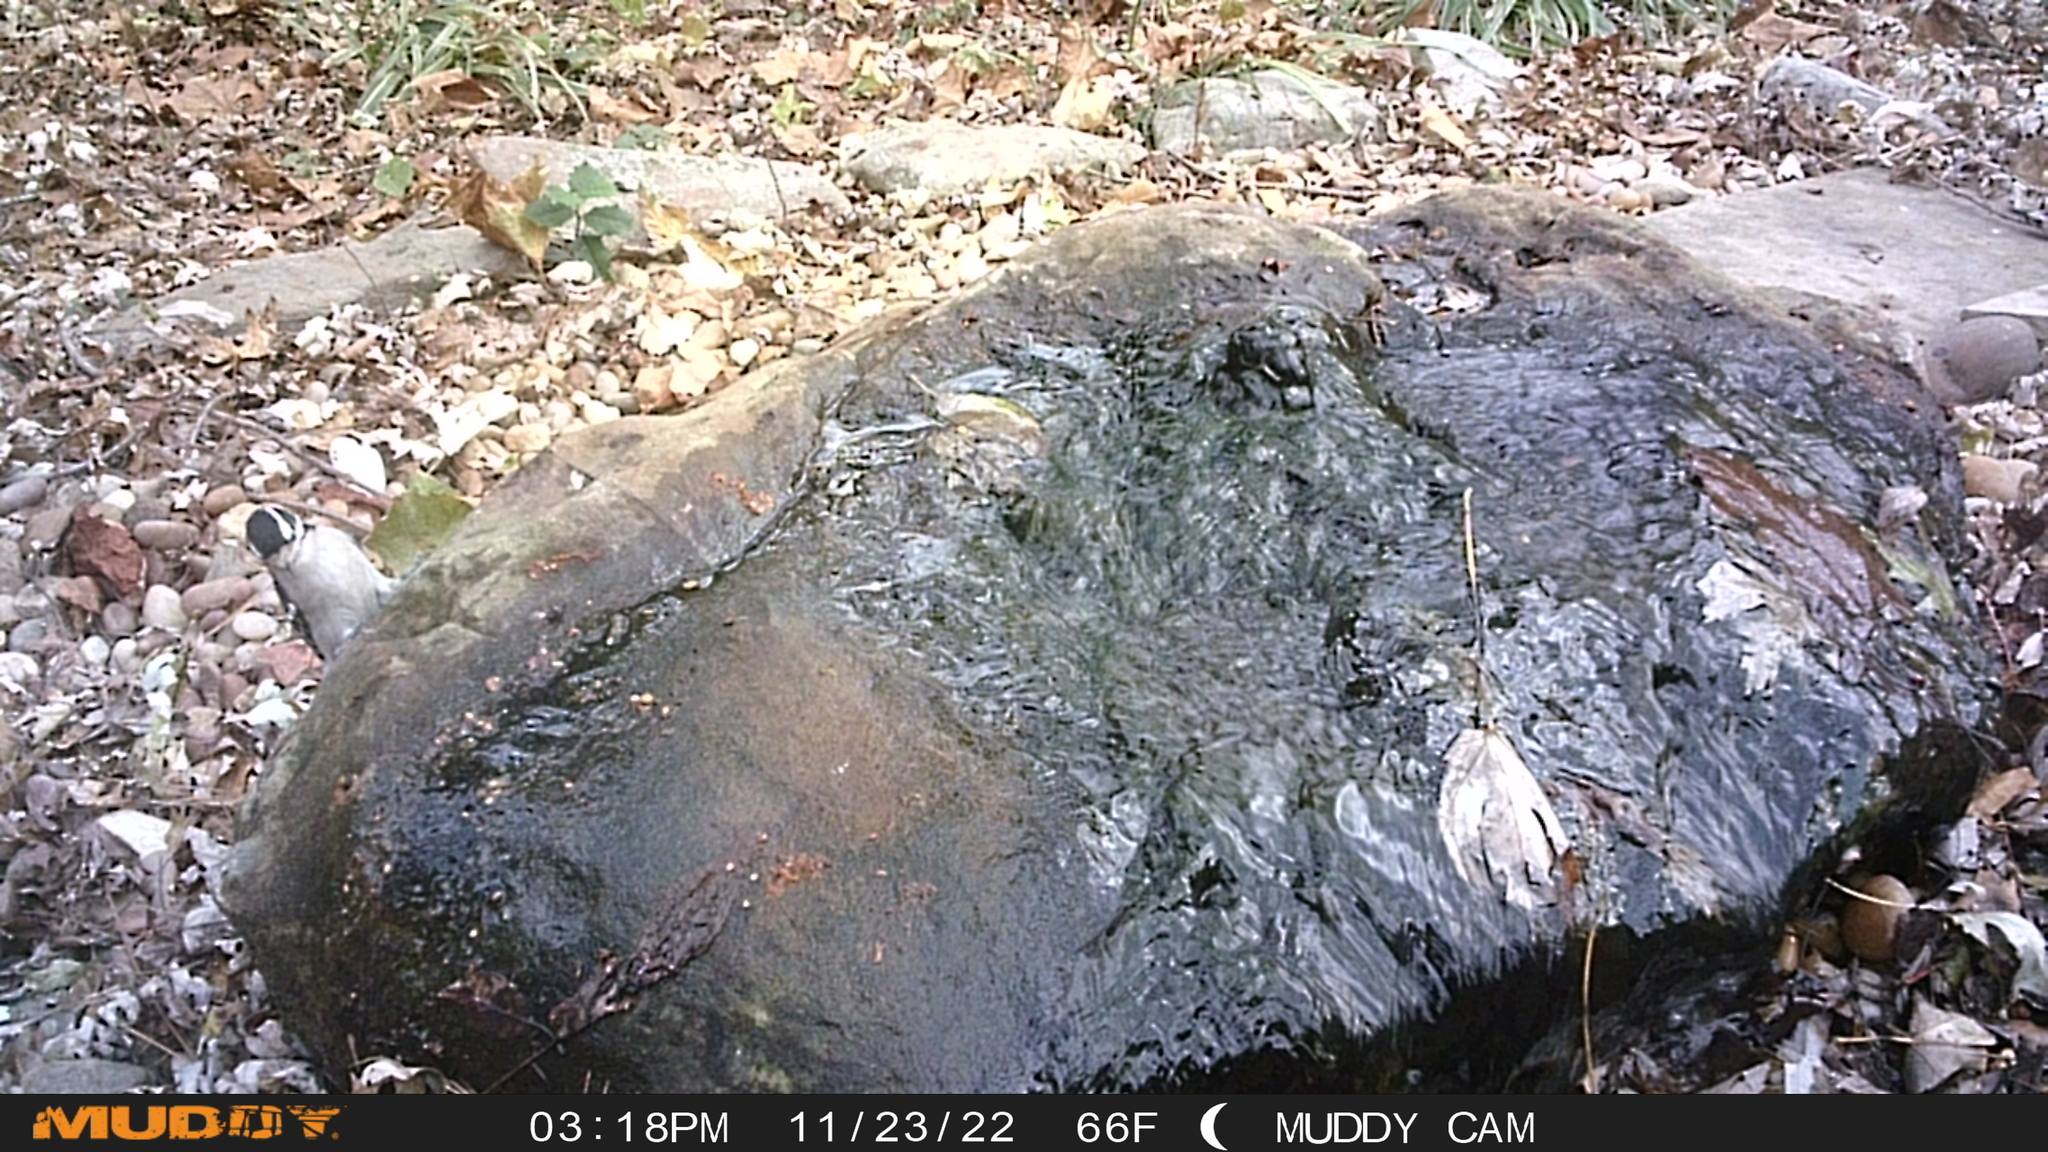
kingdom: Animalia
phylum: Chordata
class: Aves
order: Piciformes
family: Picidae
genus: Dryobates
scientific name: Dryobates pubescens
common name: Downy woodpecker
